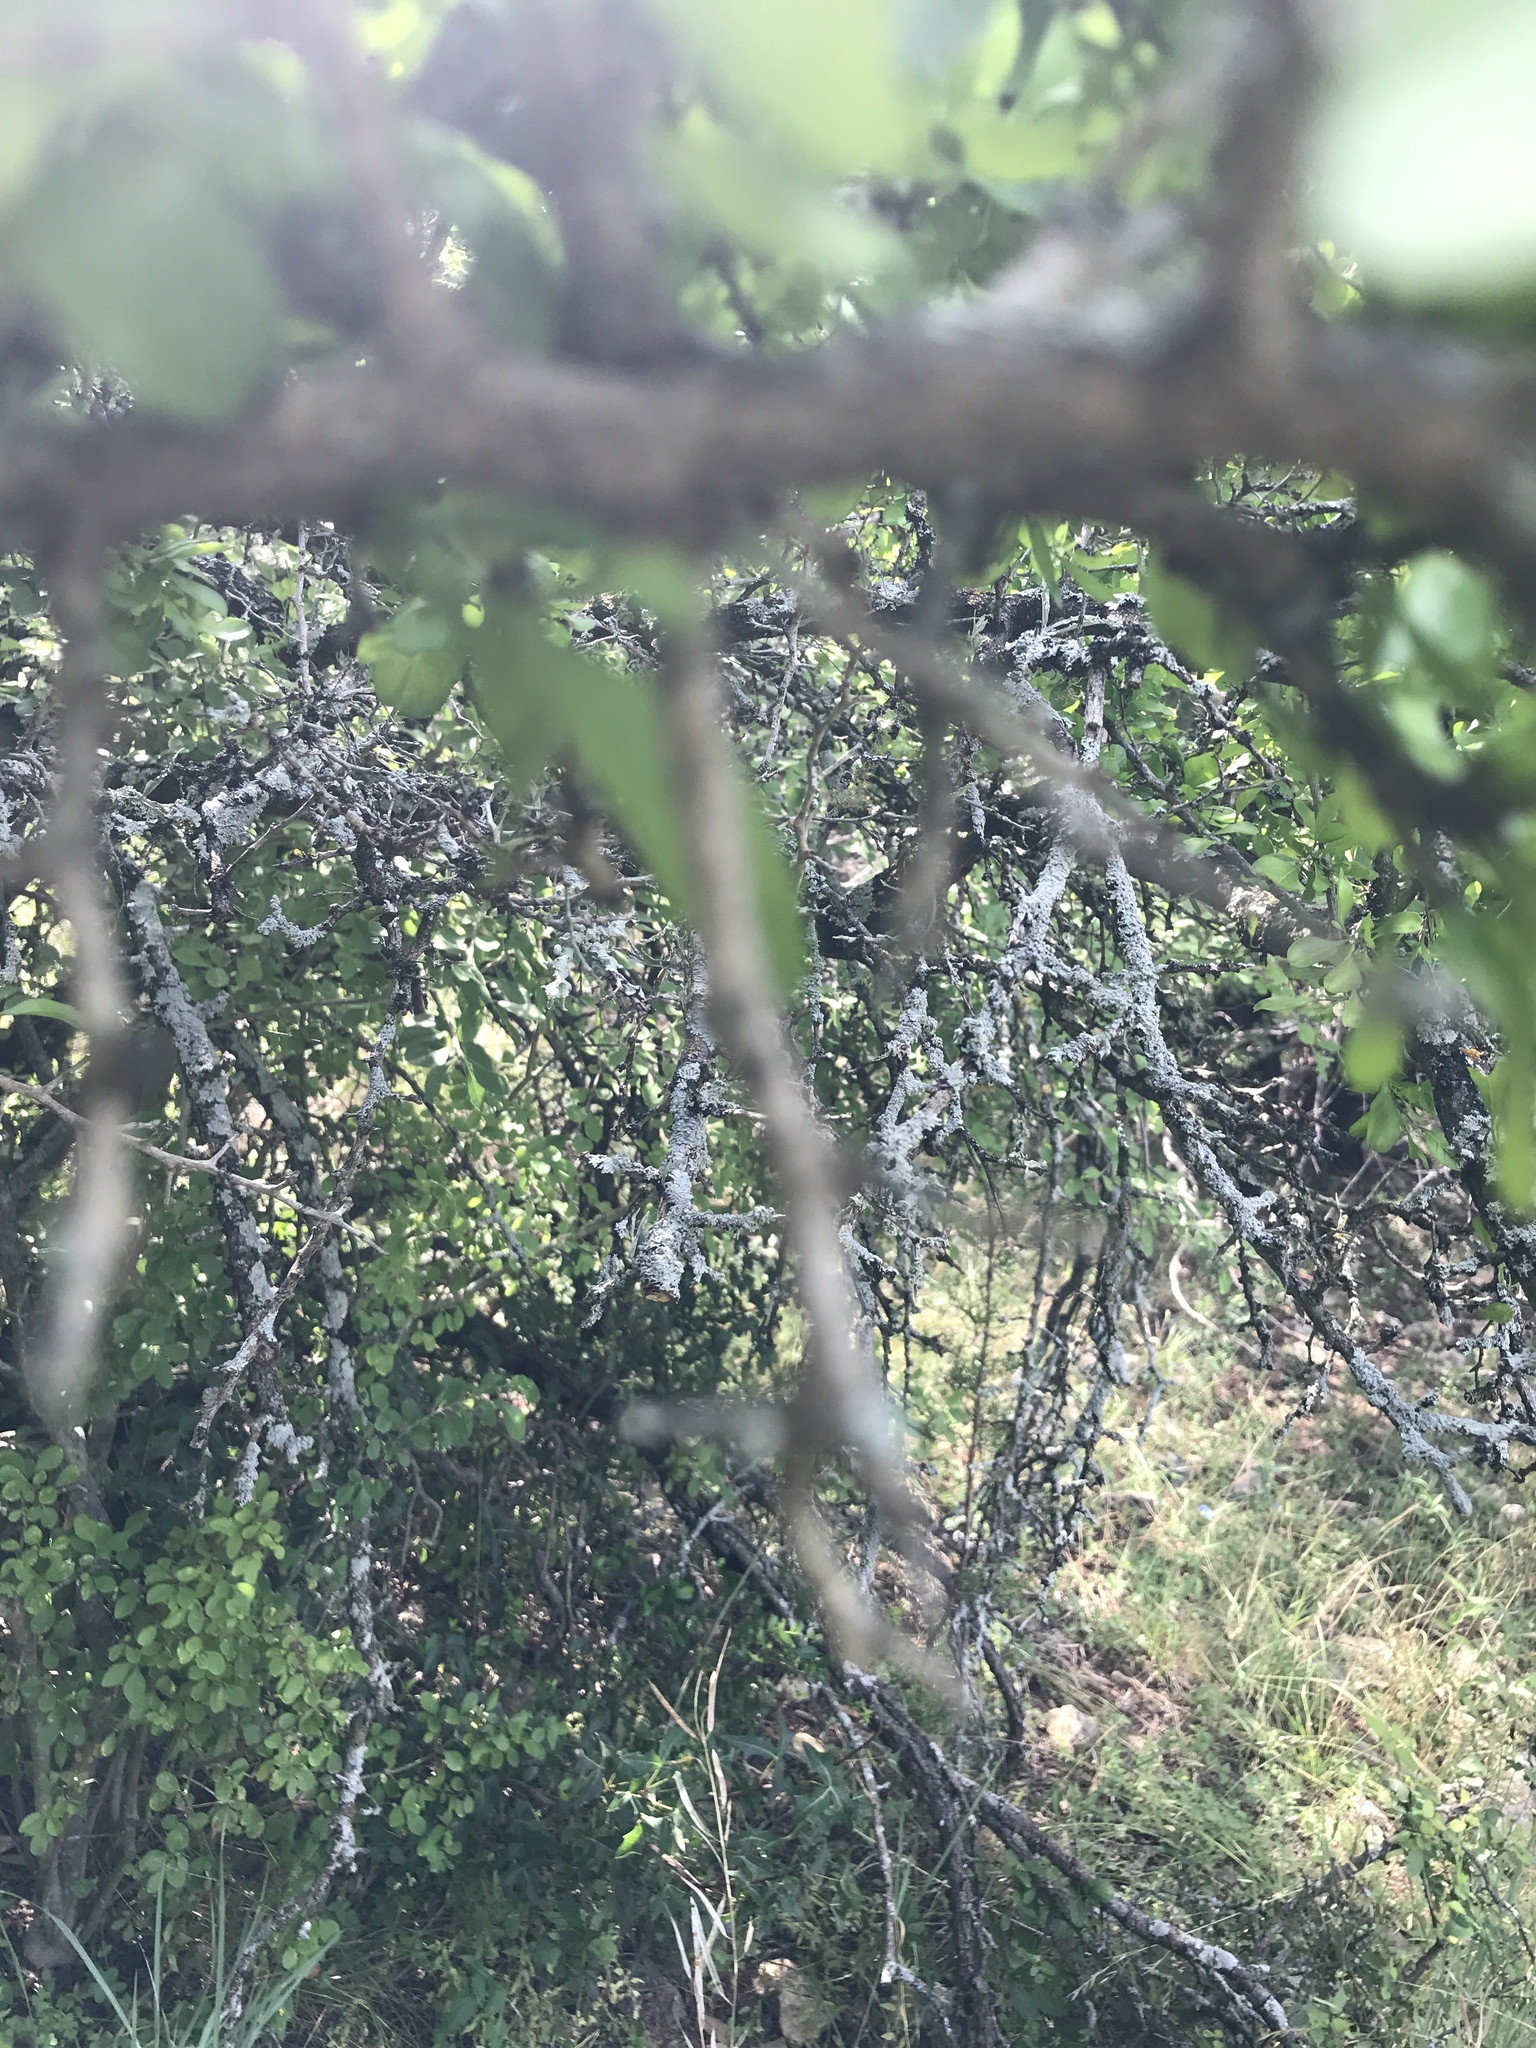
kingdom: Plantae
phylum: Tracheophyta
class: Magnoliopsida
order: Rosales
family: Rhamnaceae
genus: Condalia
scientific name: Condalia hookeri
